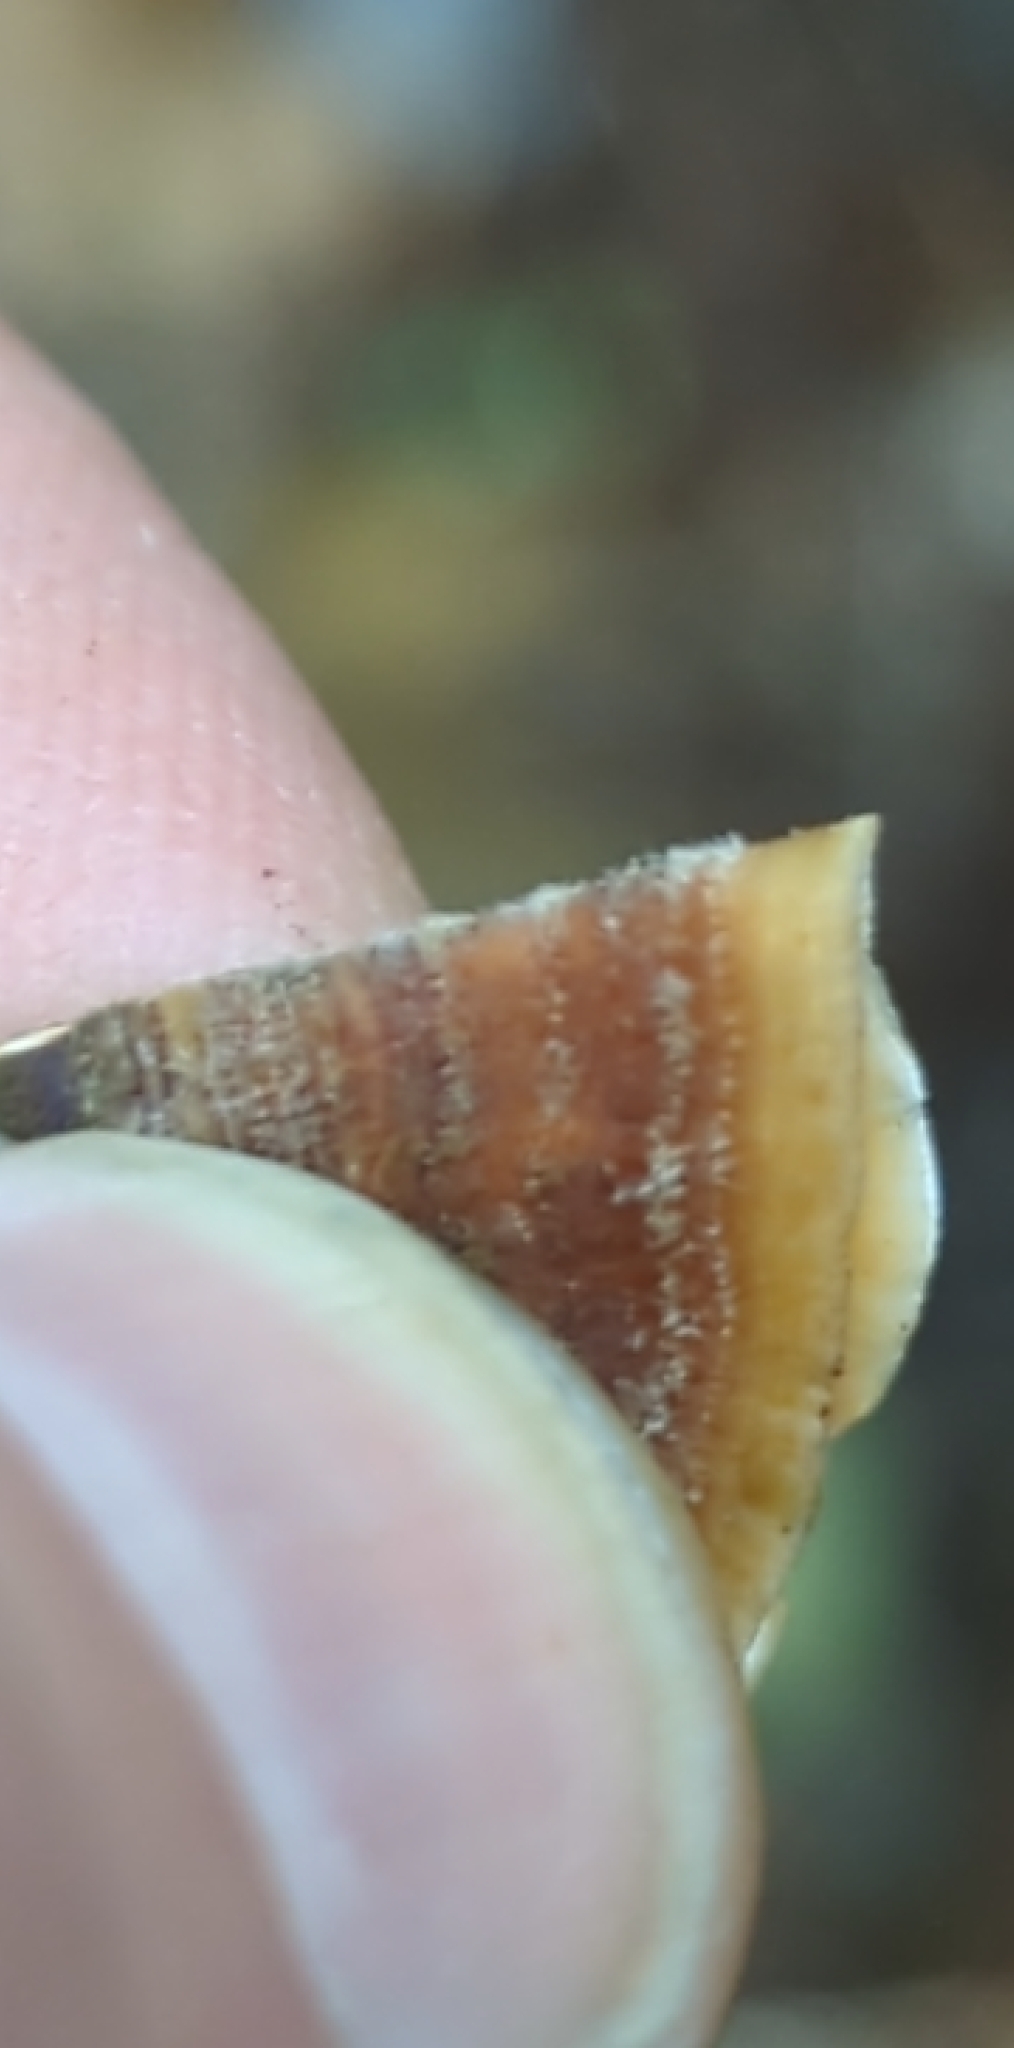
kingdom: Fungi
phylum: Basidiomycota
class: Agaricomycetes
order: Russulales
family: Stereaceae
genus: Stereum
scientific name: Stereum ostrea
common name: False turkeytail
